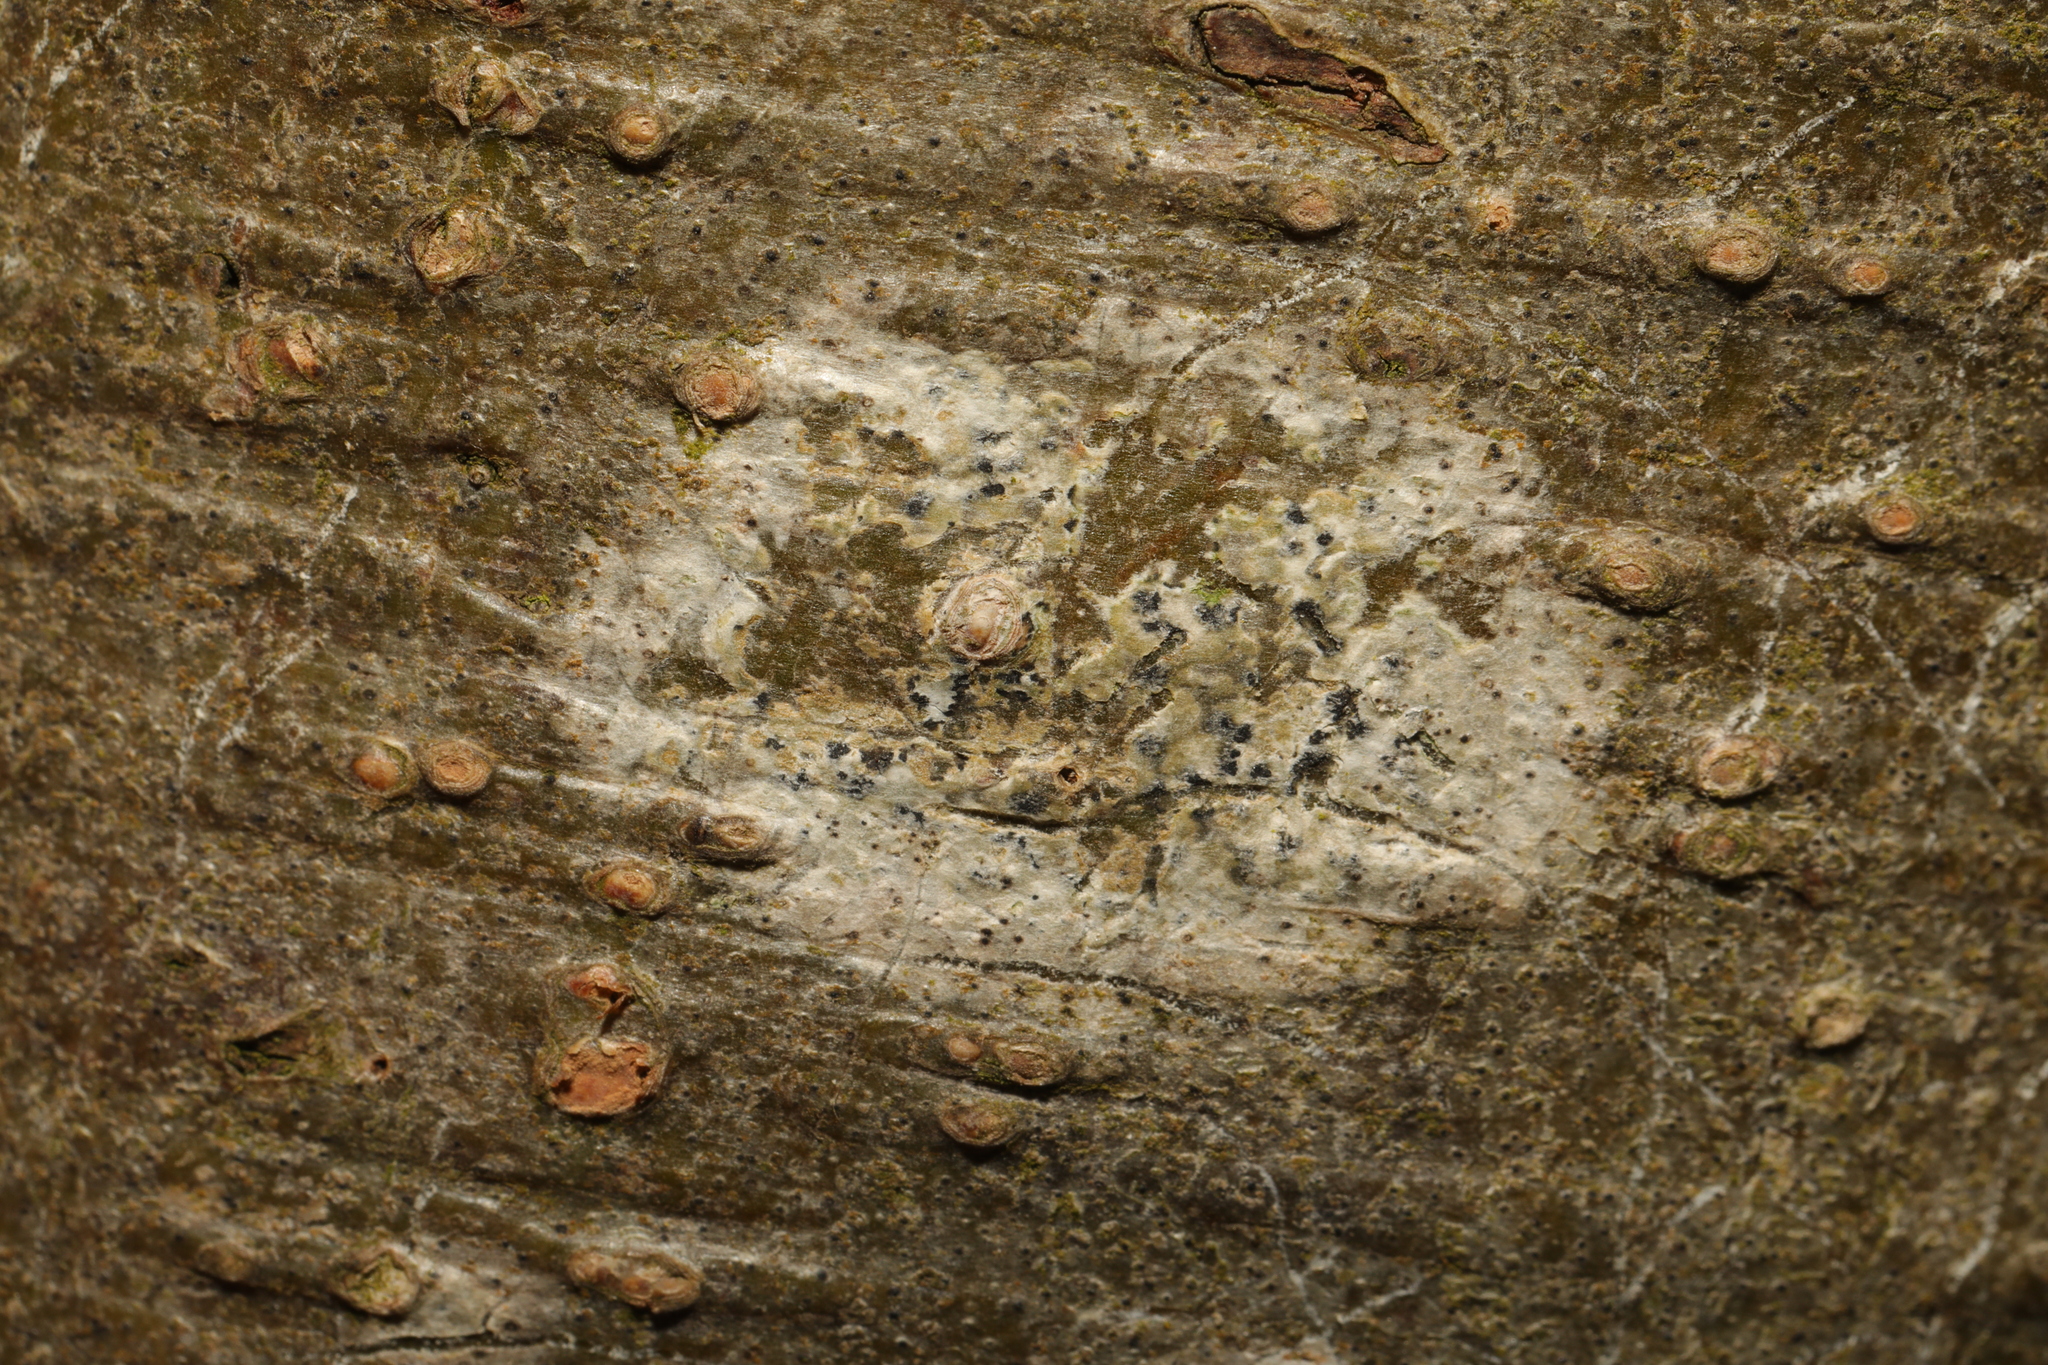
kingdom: Fungi
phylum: Ascomycota
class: Arthoniomycetes
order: Arthoniales
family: Arthoniaceae
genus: Arthonia
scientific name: Arthonia radiata
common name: Asterisk lichen
